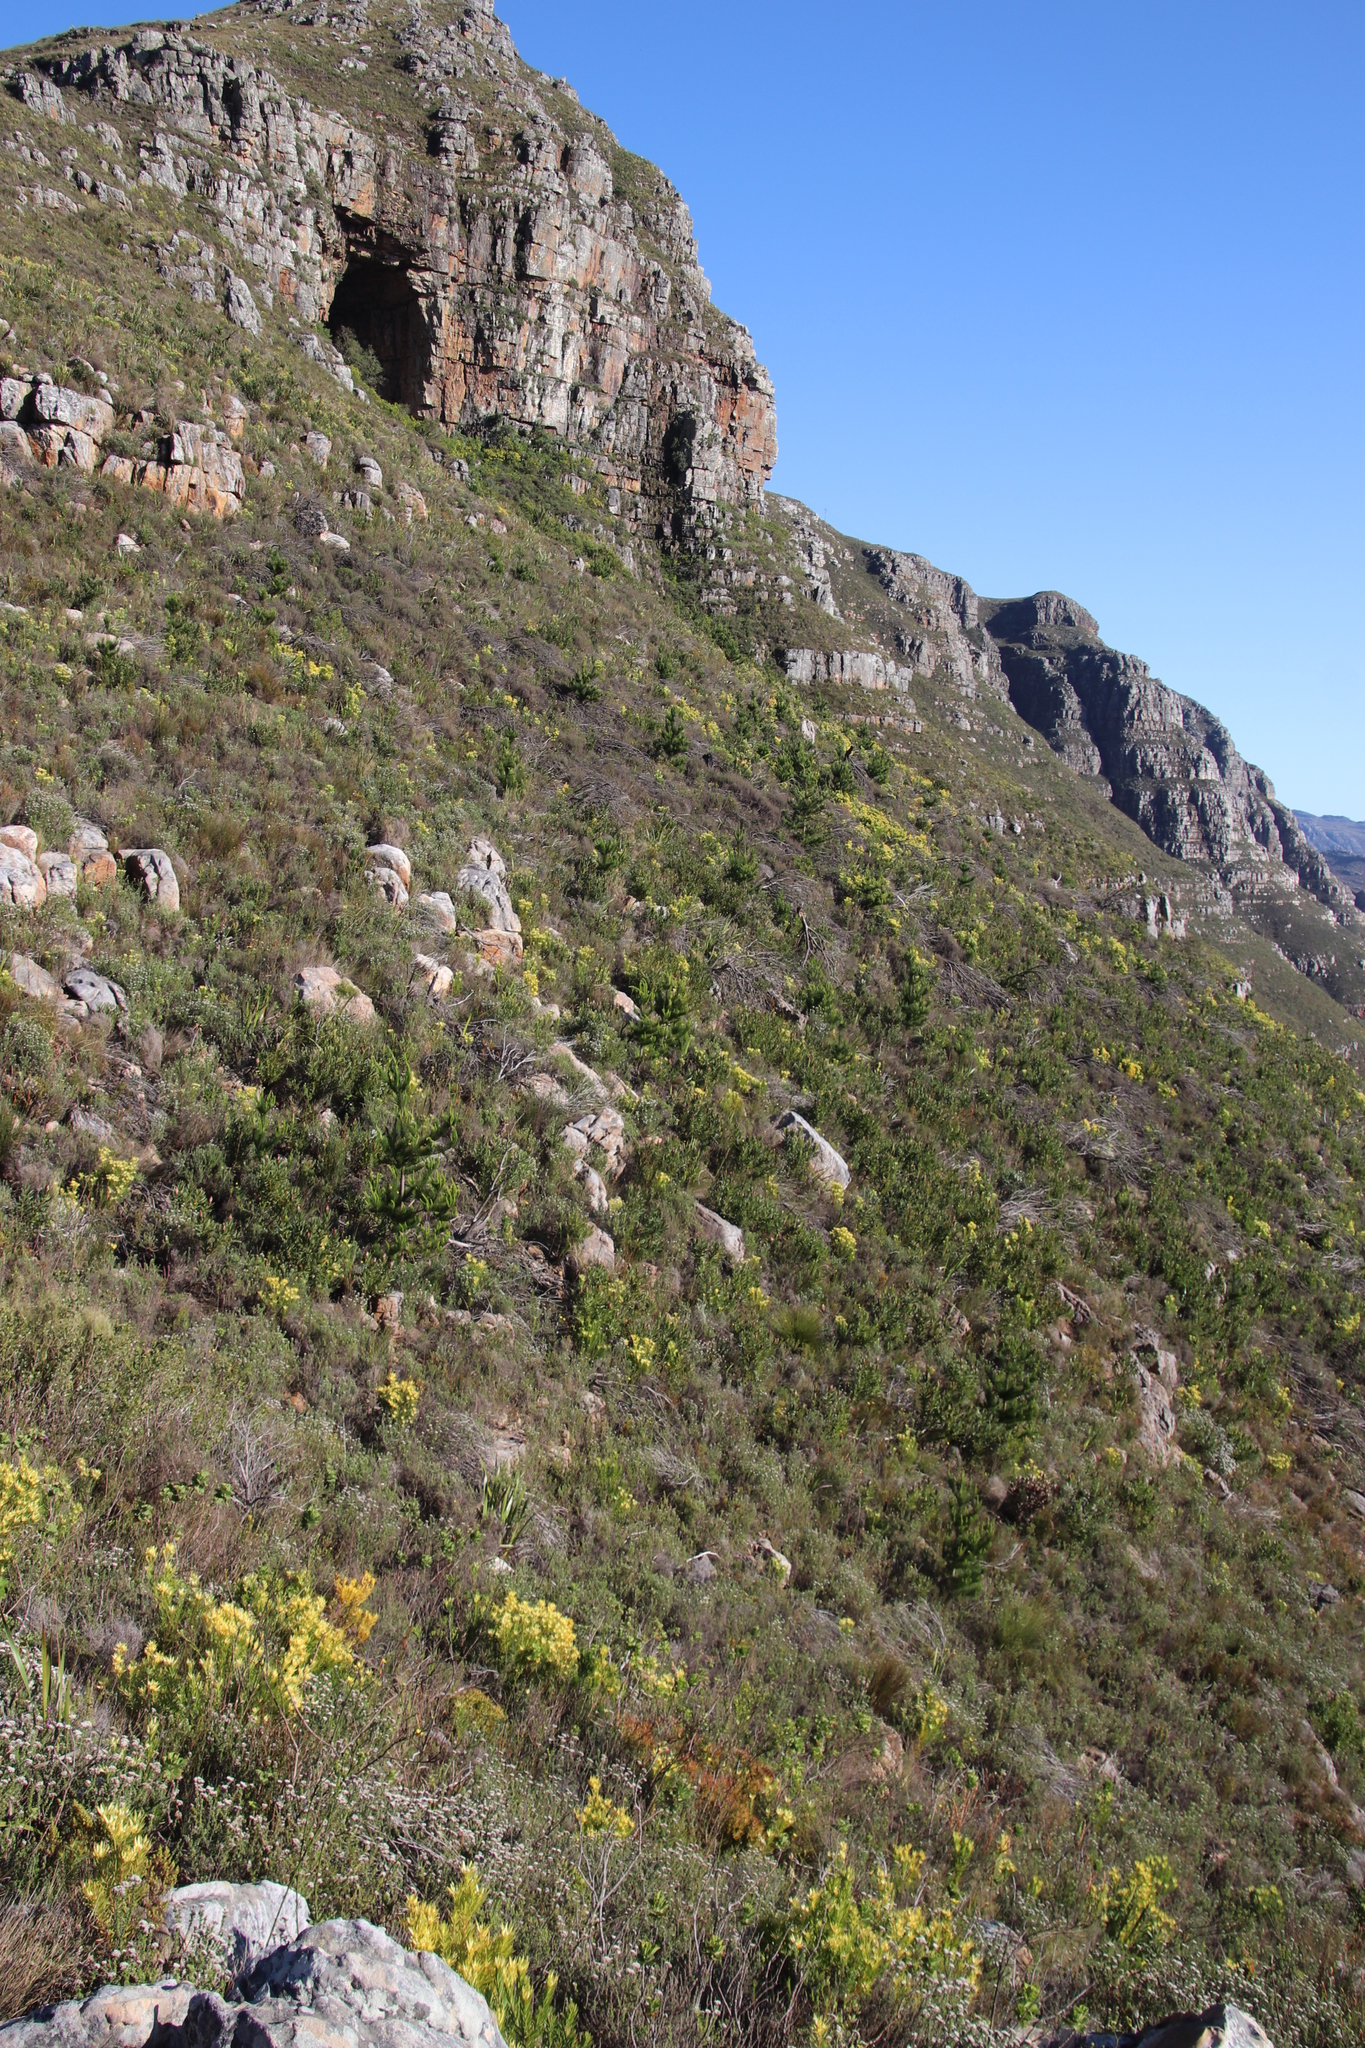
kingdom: Plantae
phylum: Tracheophyta
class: Pinopsida
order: Pinales
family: Pinaceae
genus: Pinus
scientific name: Pinus radiata
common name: Monterey pine
